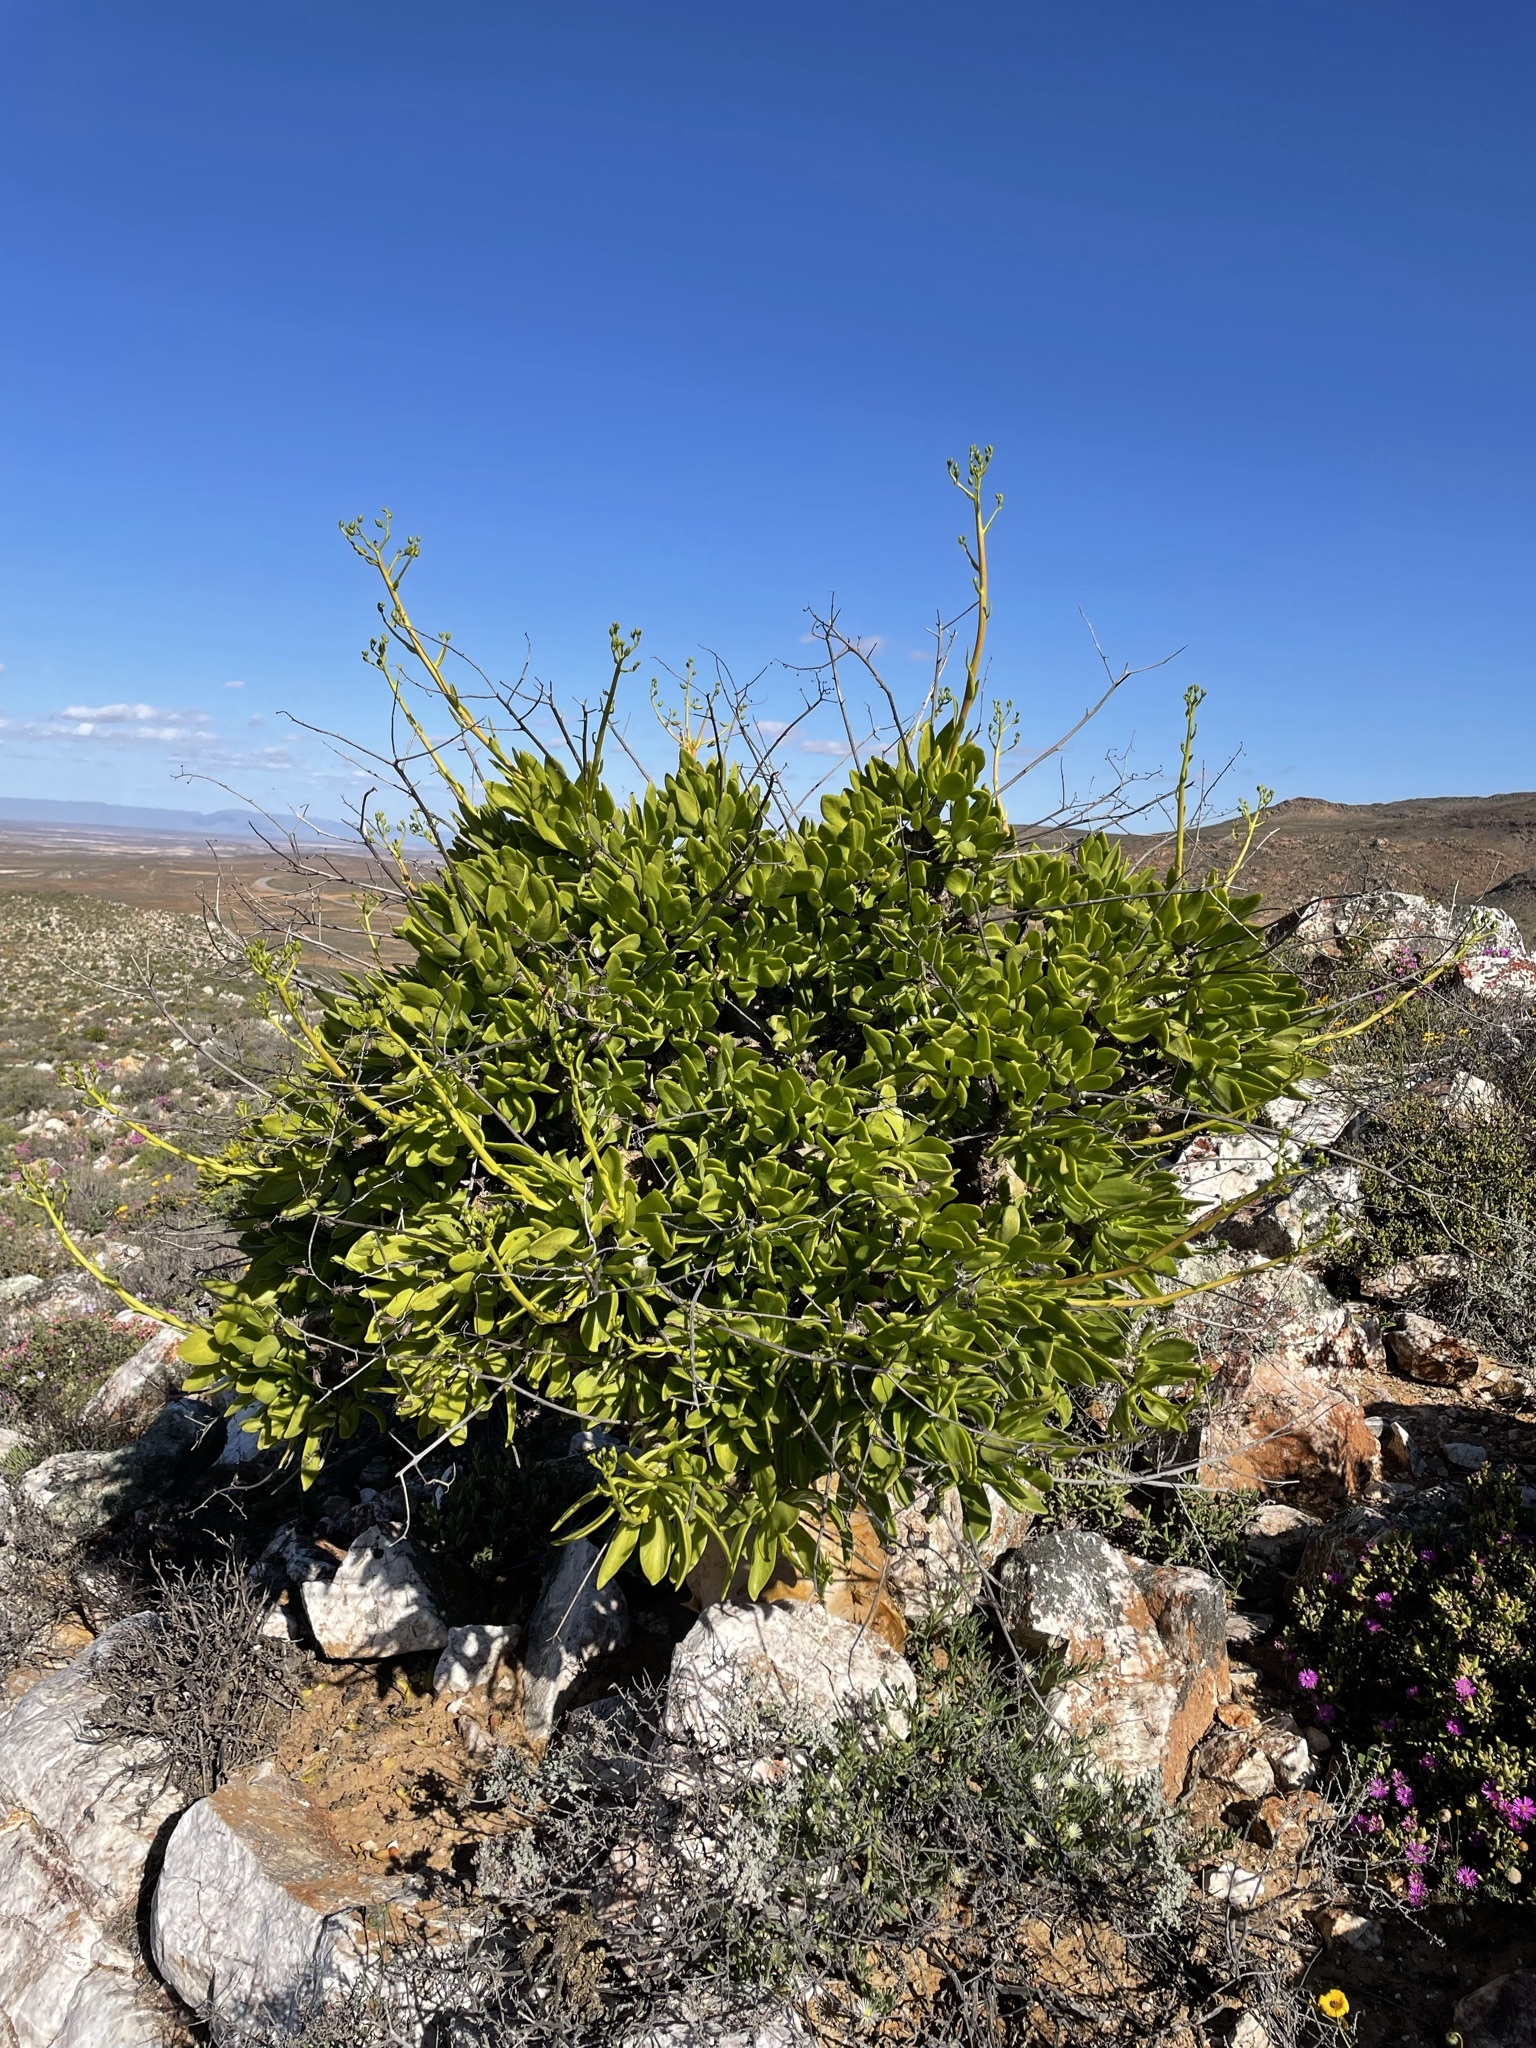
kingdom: Plantae
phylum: Tracheophyta
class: Magnoliopsida
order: Saxifragales
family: Crassulaceae
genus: Tylecodon
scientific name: Tylecodon paniculatus
